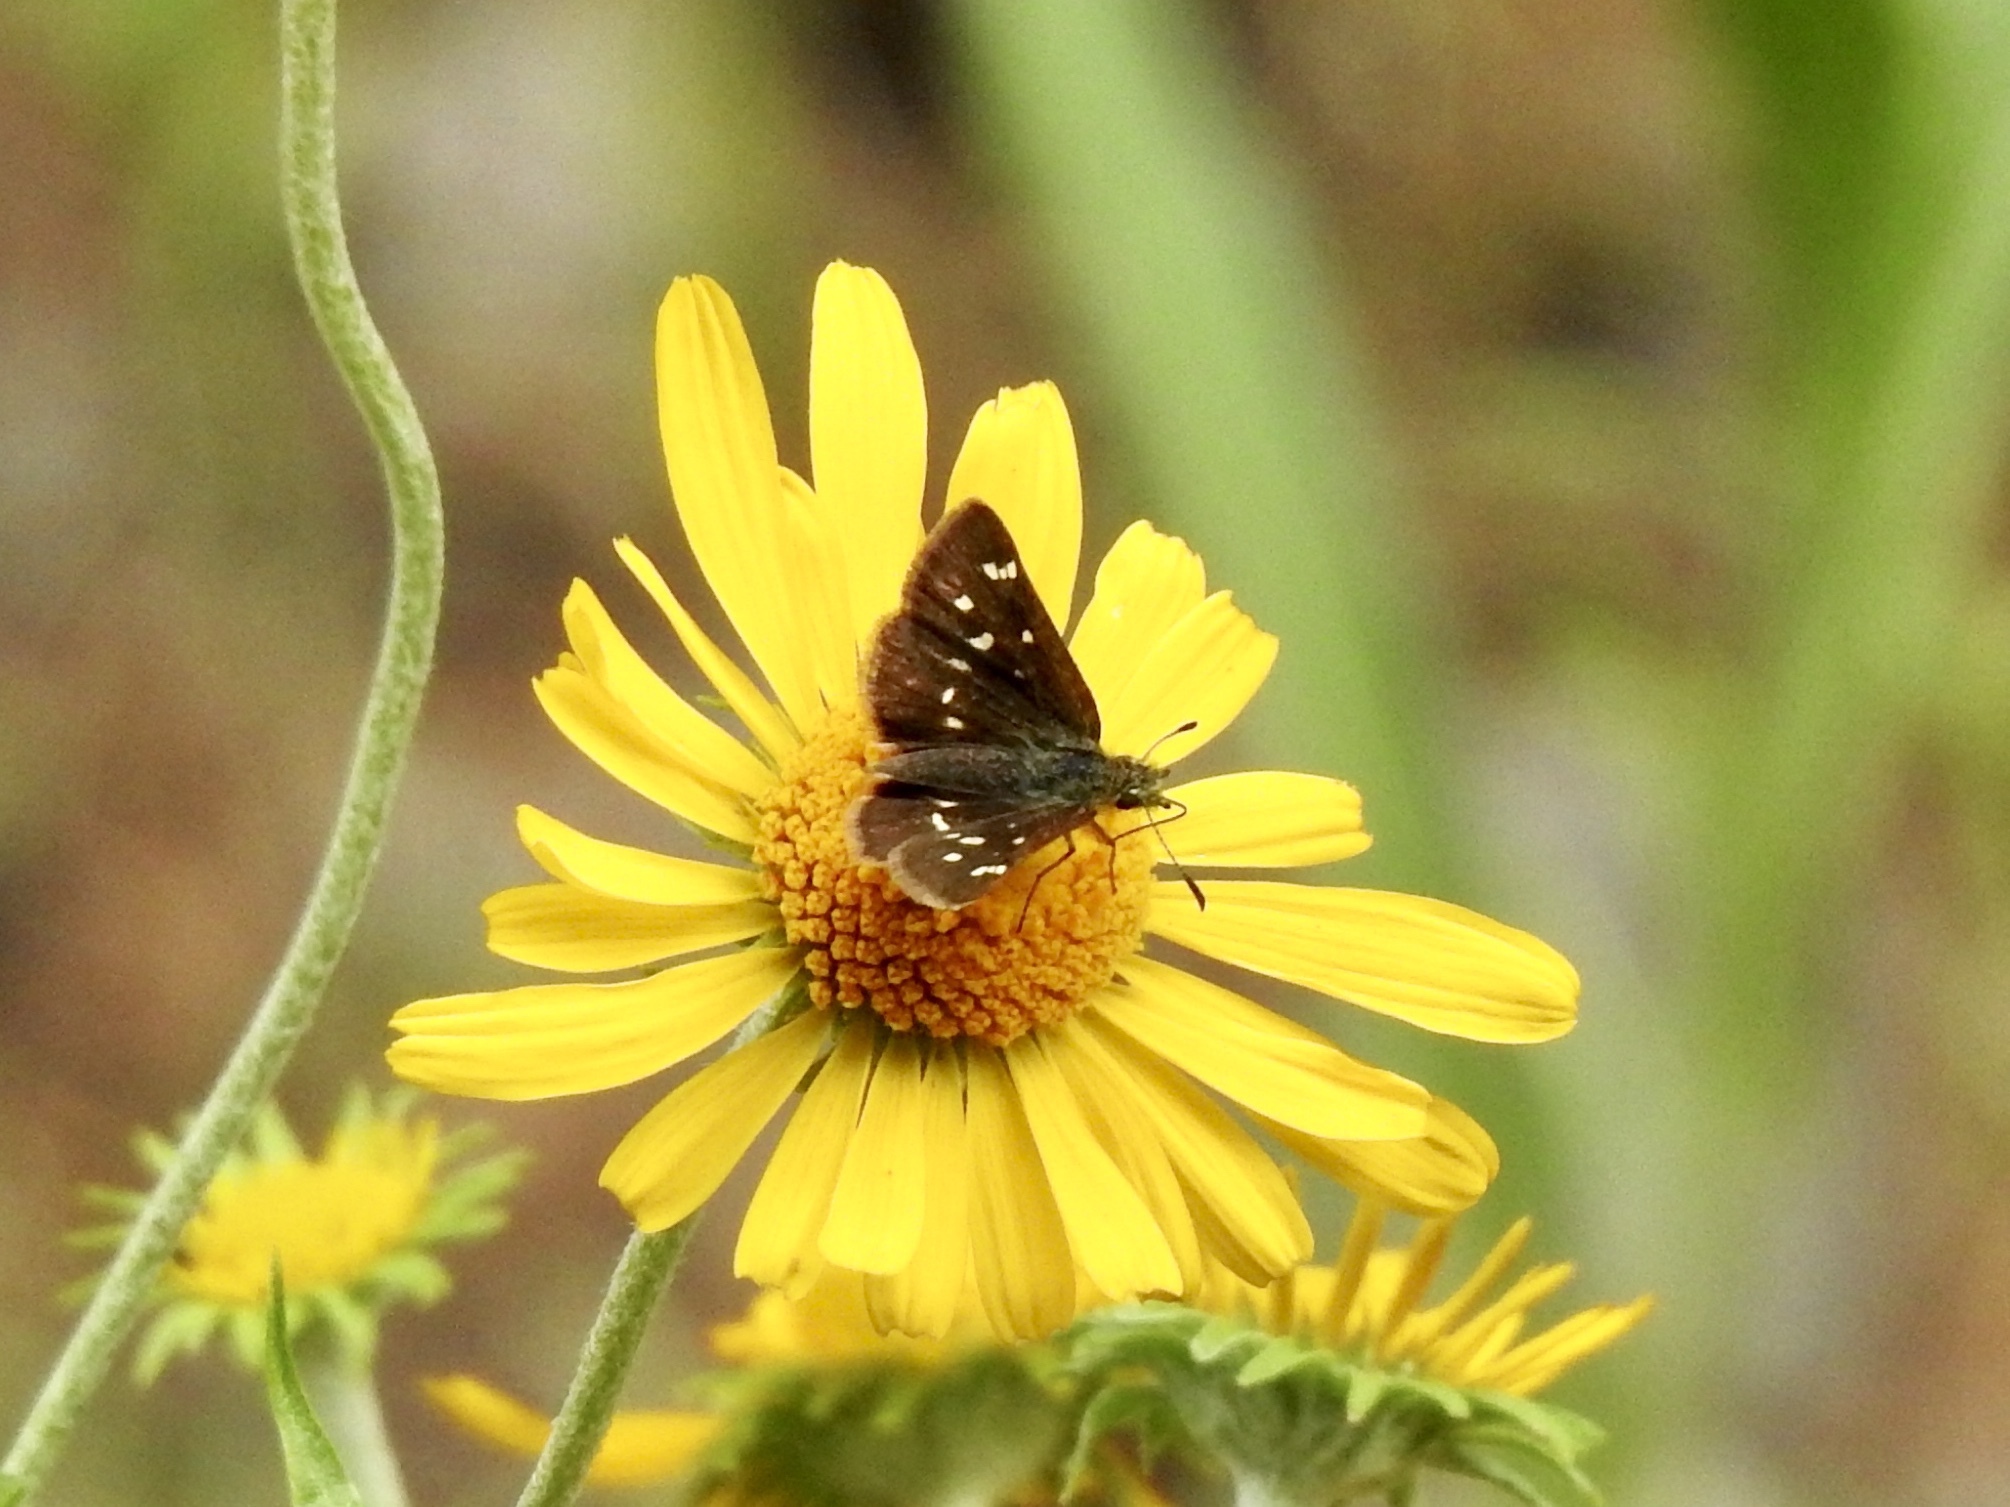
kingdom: Animalia
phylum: Arthropoda
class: Insecta
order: Lepidoptera
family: Hesperiidae
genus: Piruna
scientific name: Piruna polingii
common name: Four-spotted skipperling
